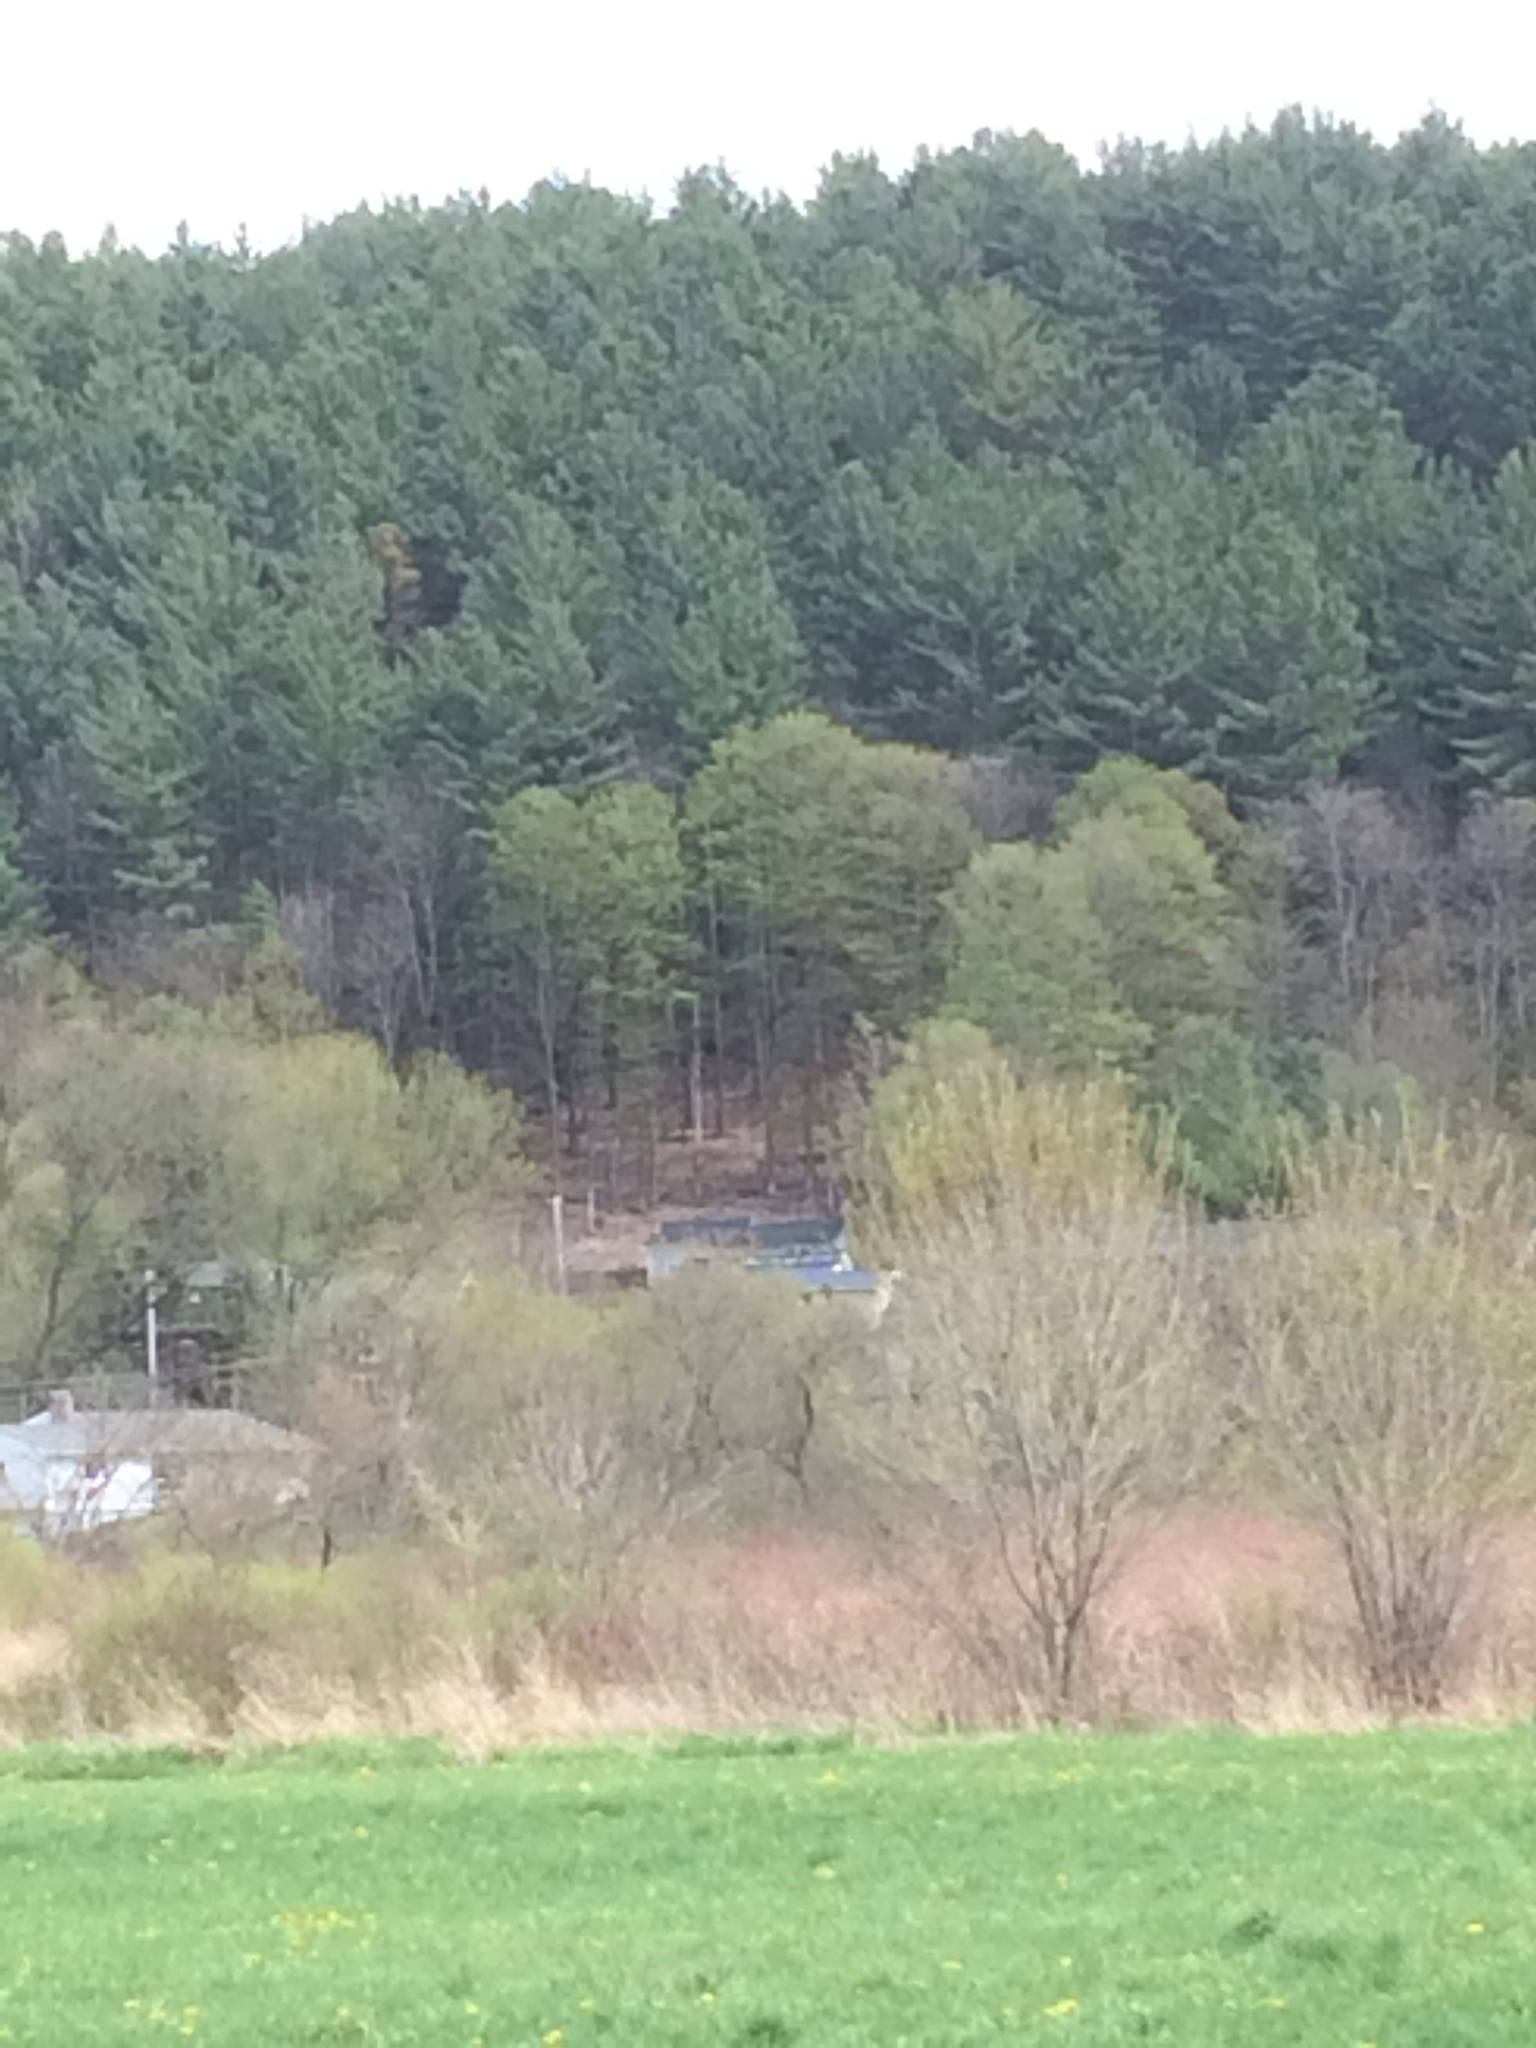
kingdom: Plantae
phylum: Tracheophyta
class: Pinopsida
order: Pinales
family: Pinaceae
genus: Pinus
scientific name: Pinus strobus
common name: Weymouth pine
